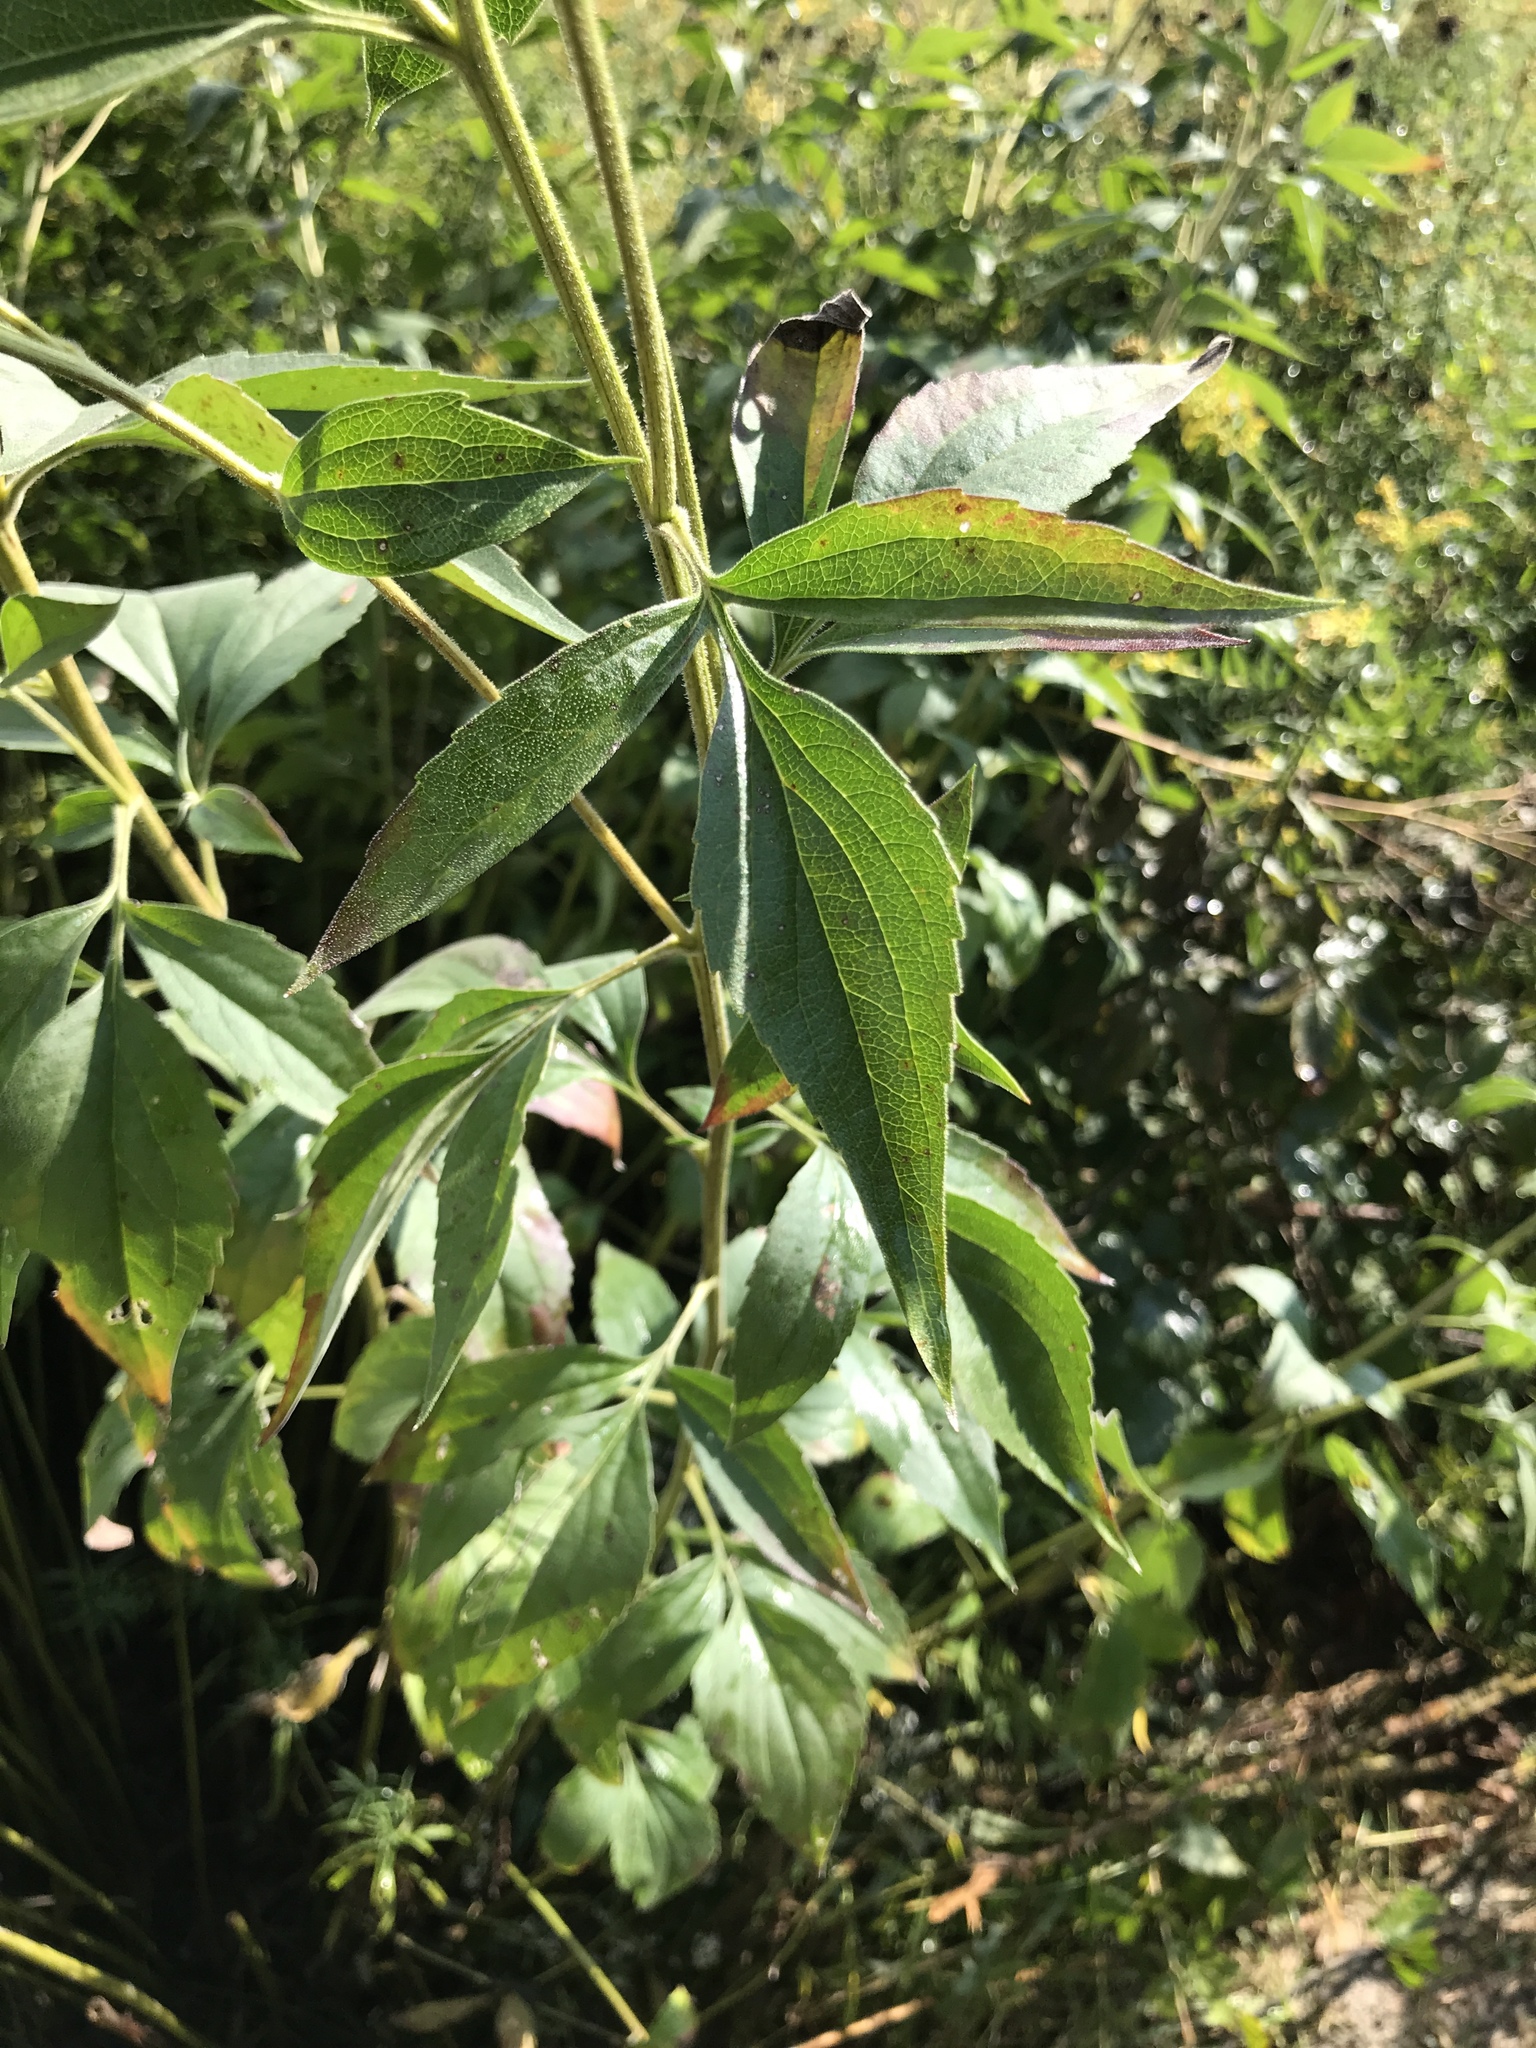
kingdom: Plantae
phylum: Tracheophyta
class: Magnoliopsida
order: Asterales
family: Asteraceae
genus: Rudbeckia
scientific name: Rudbeckia subtomentosa
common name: Sweet coneflower
